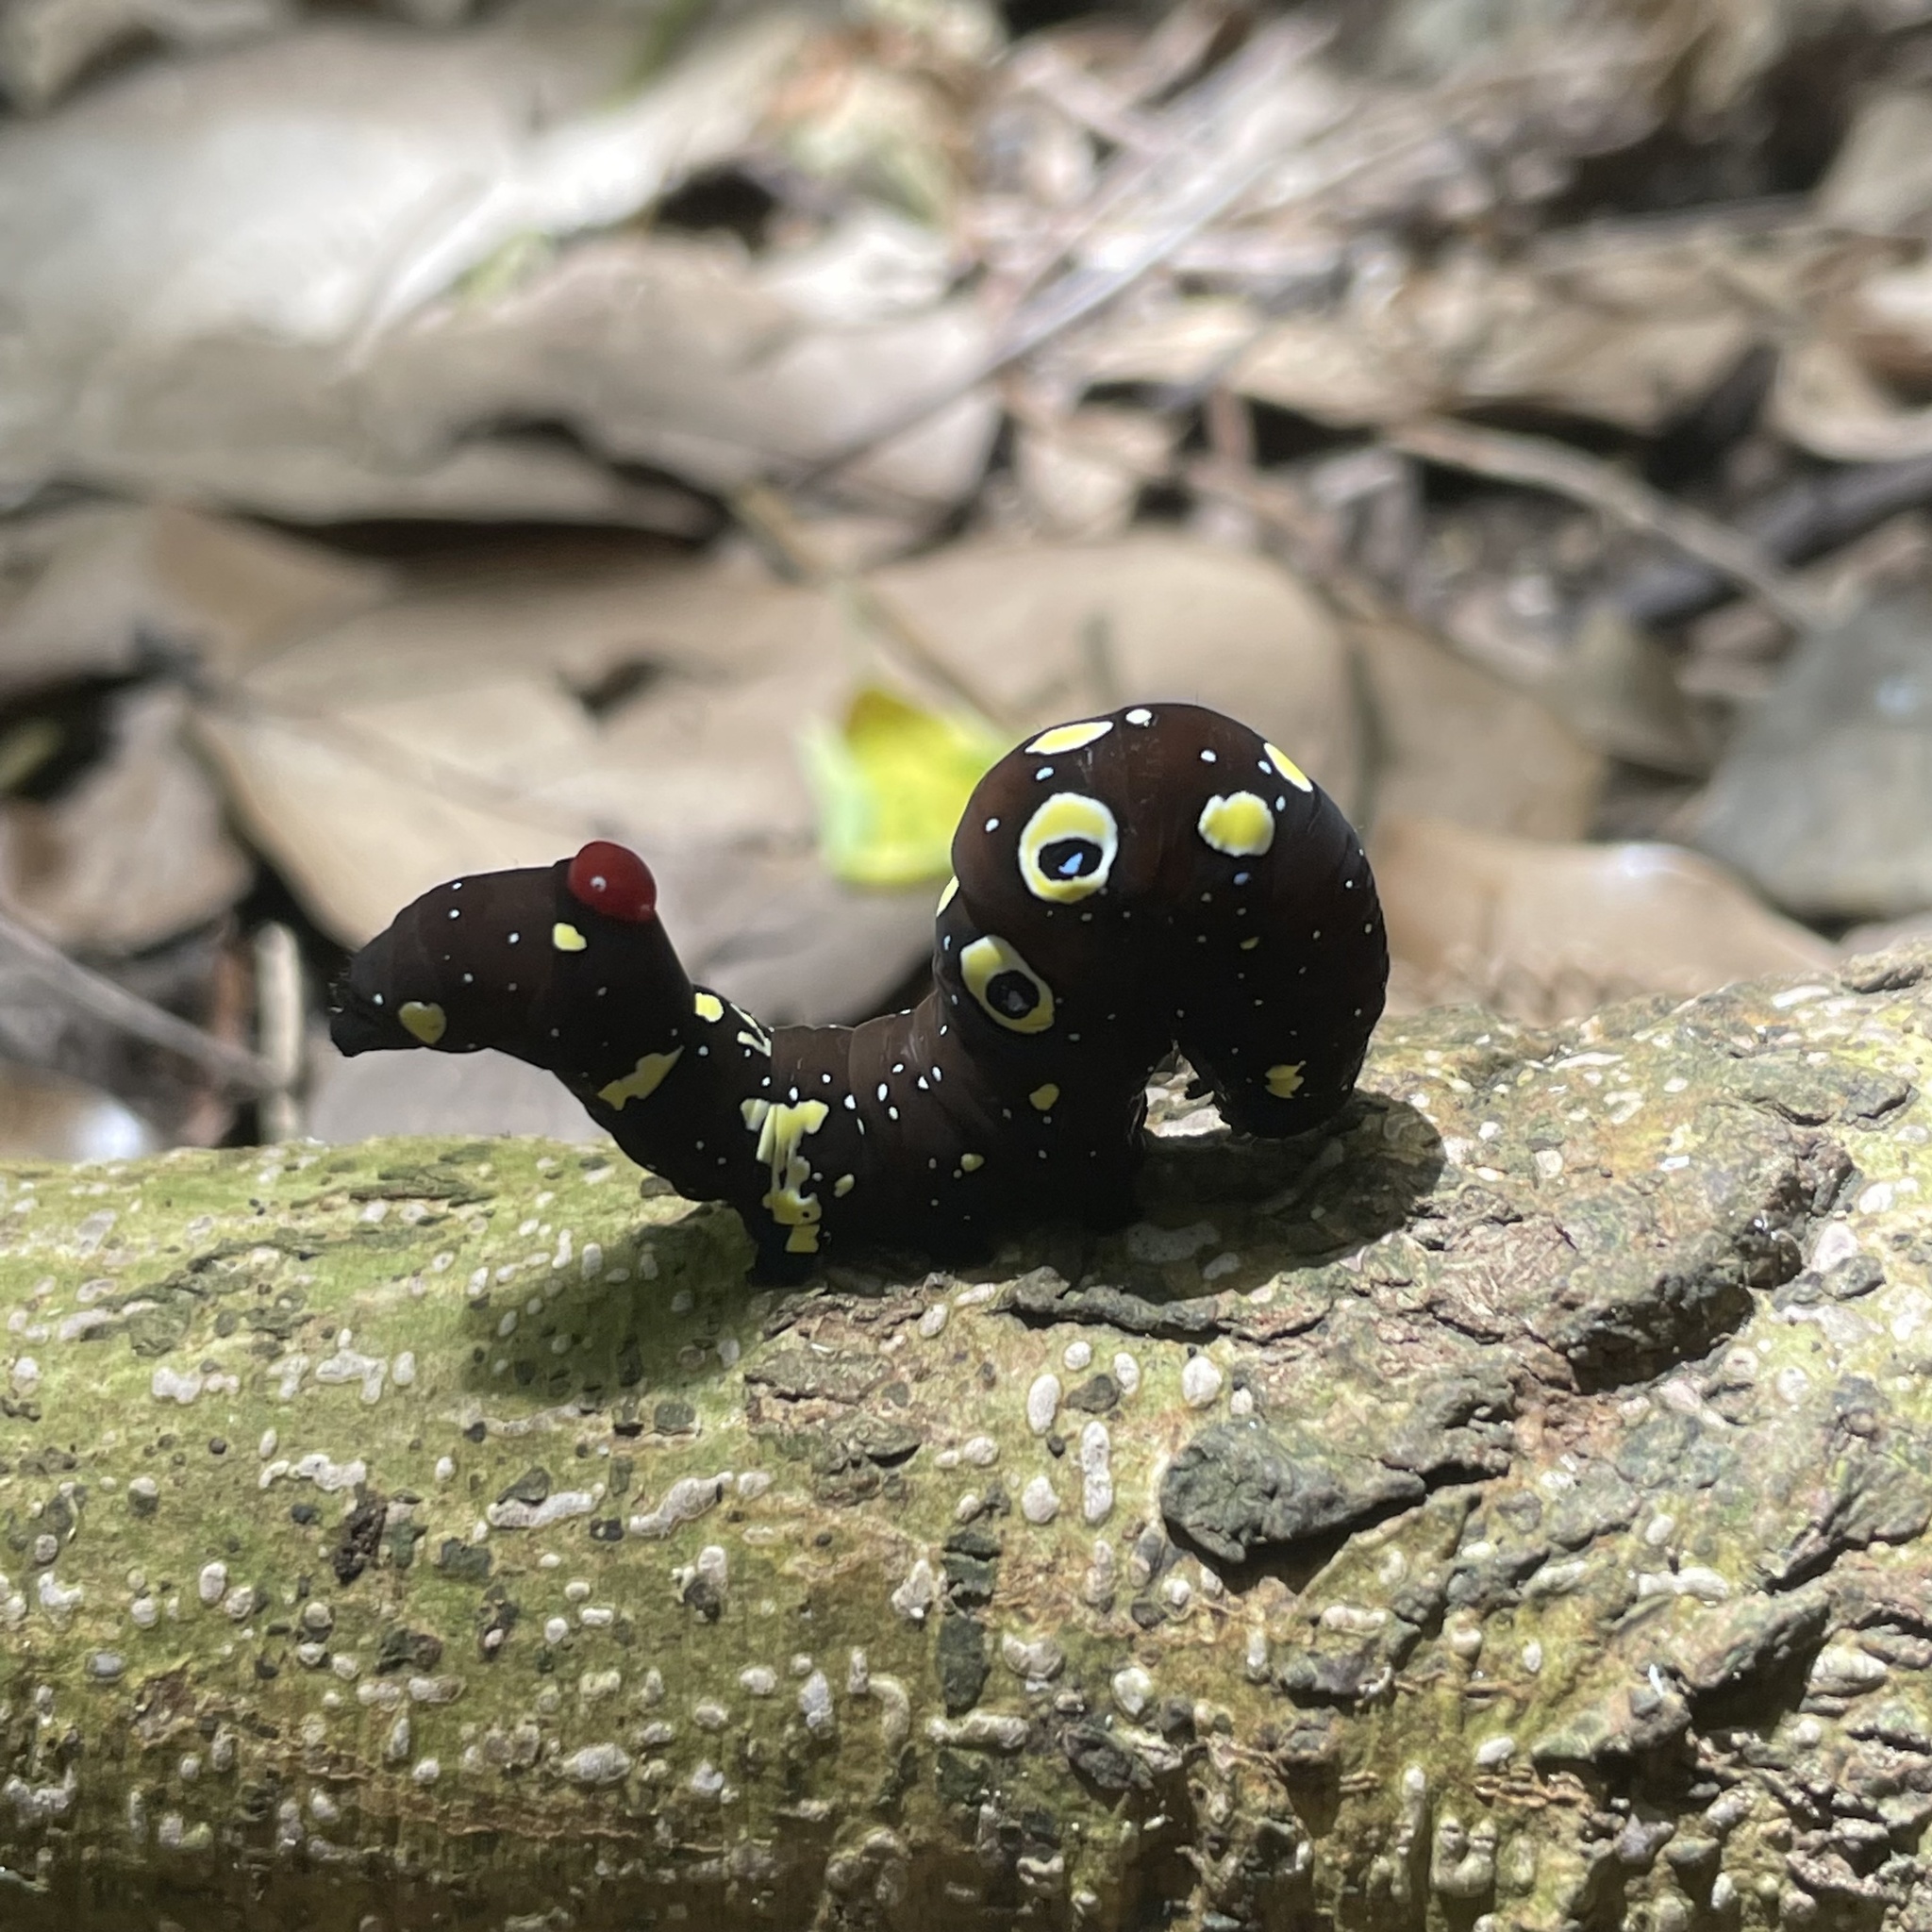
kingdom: Animalia
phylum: Arthropoda
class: Insecta
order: Lepidoptera
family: Erebidae
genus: Eudocima
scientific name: Eudocima phalonia
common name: Wasp
